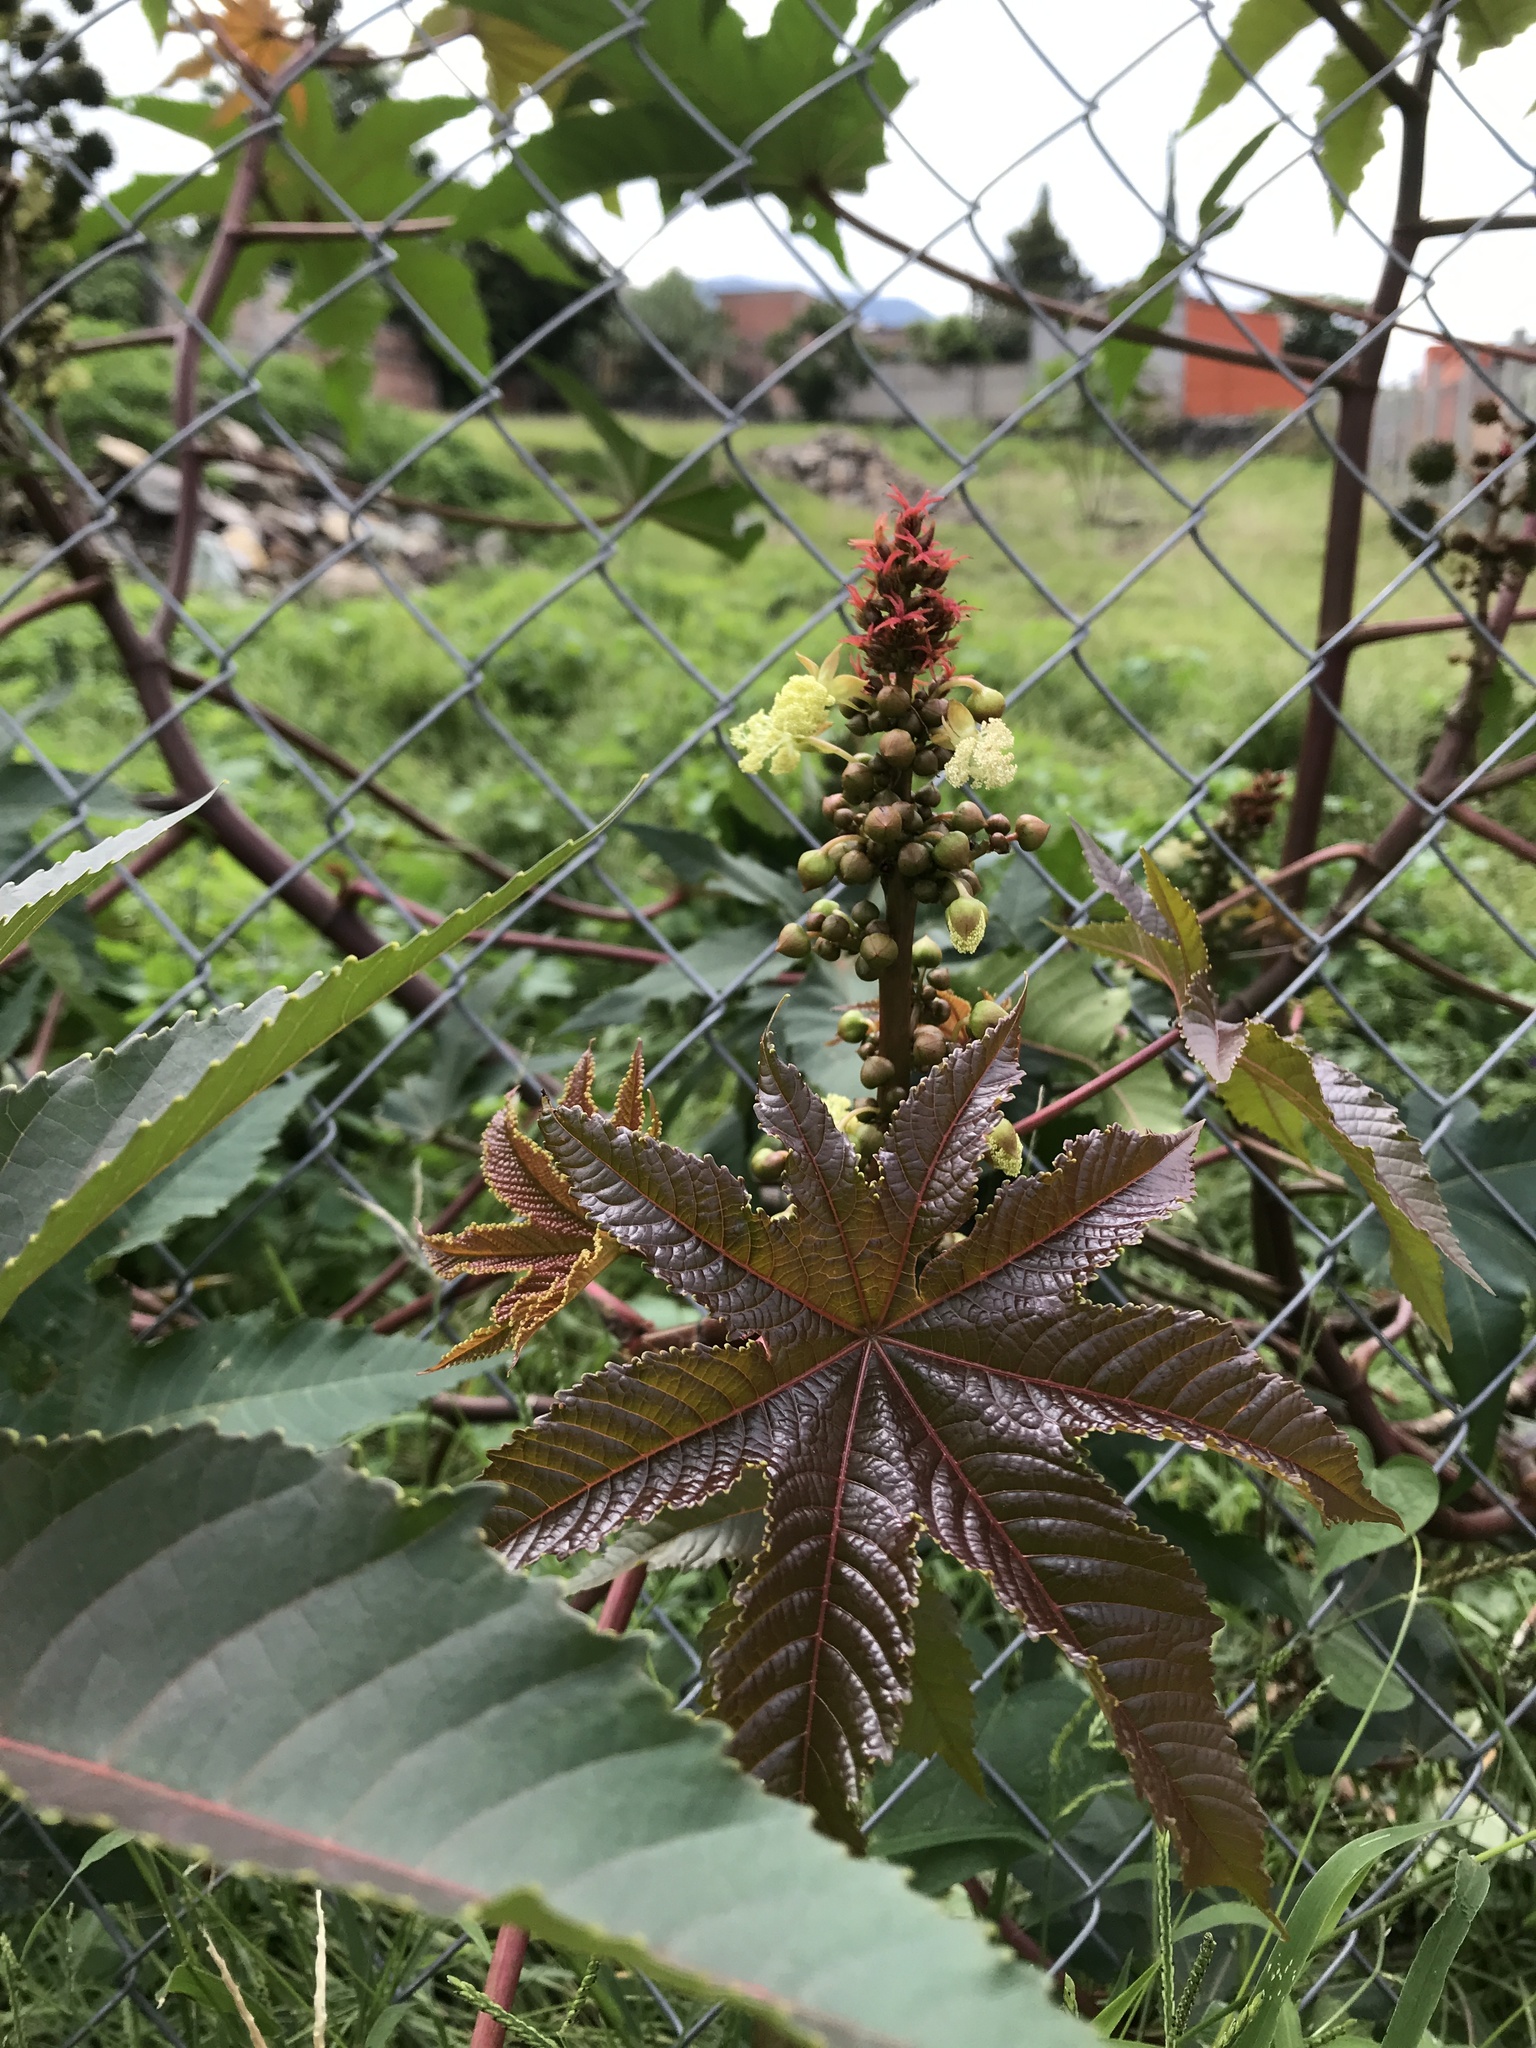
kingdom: Plantae
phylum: Tracheophyta
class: Magnoliopsida
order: Malpighiales
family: Euphorbiaceae
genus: Ricinus
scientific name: Ricinus communis
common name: Castor-oil-plant
